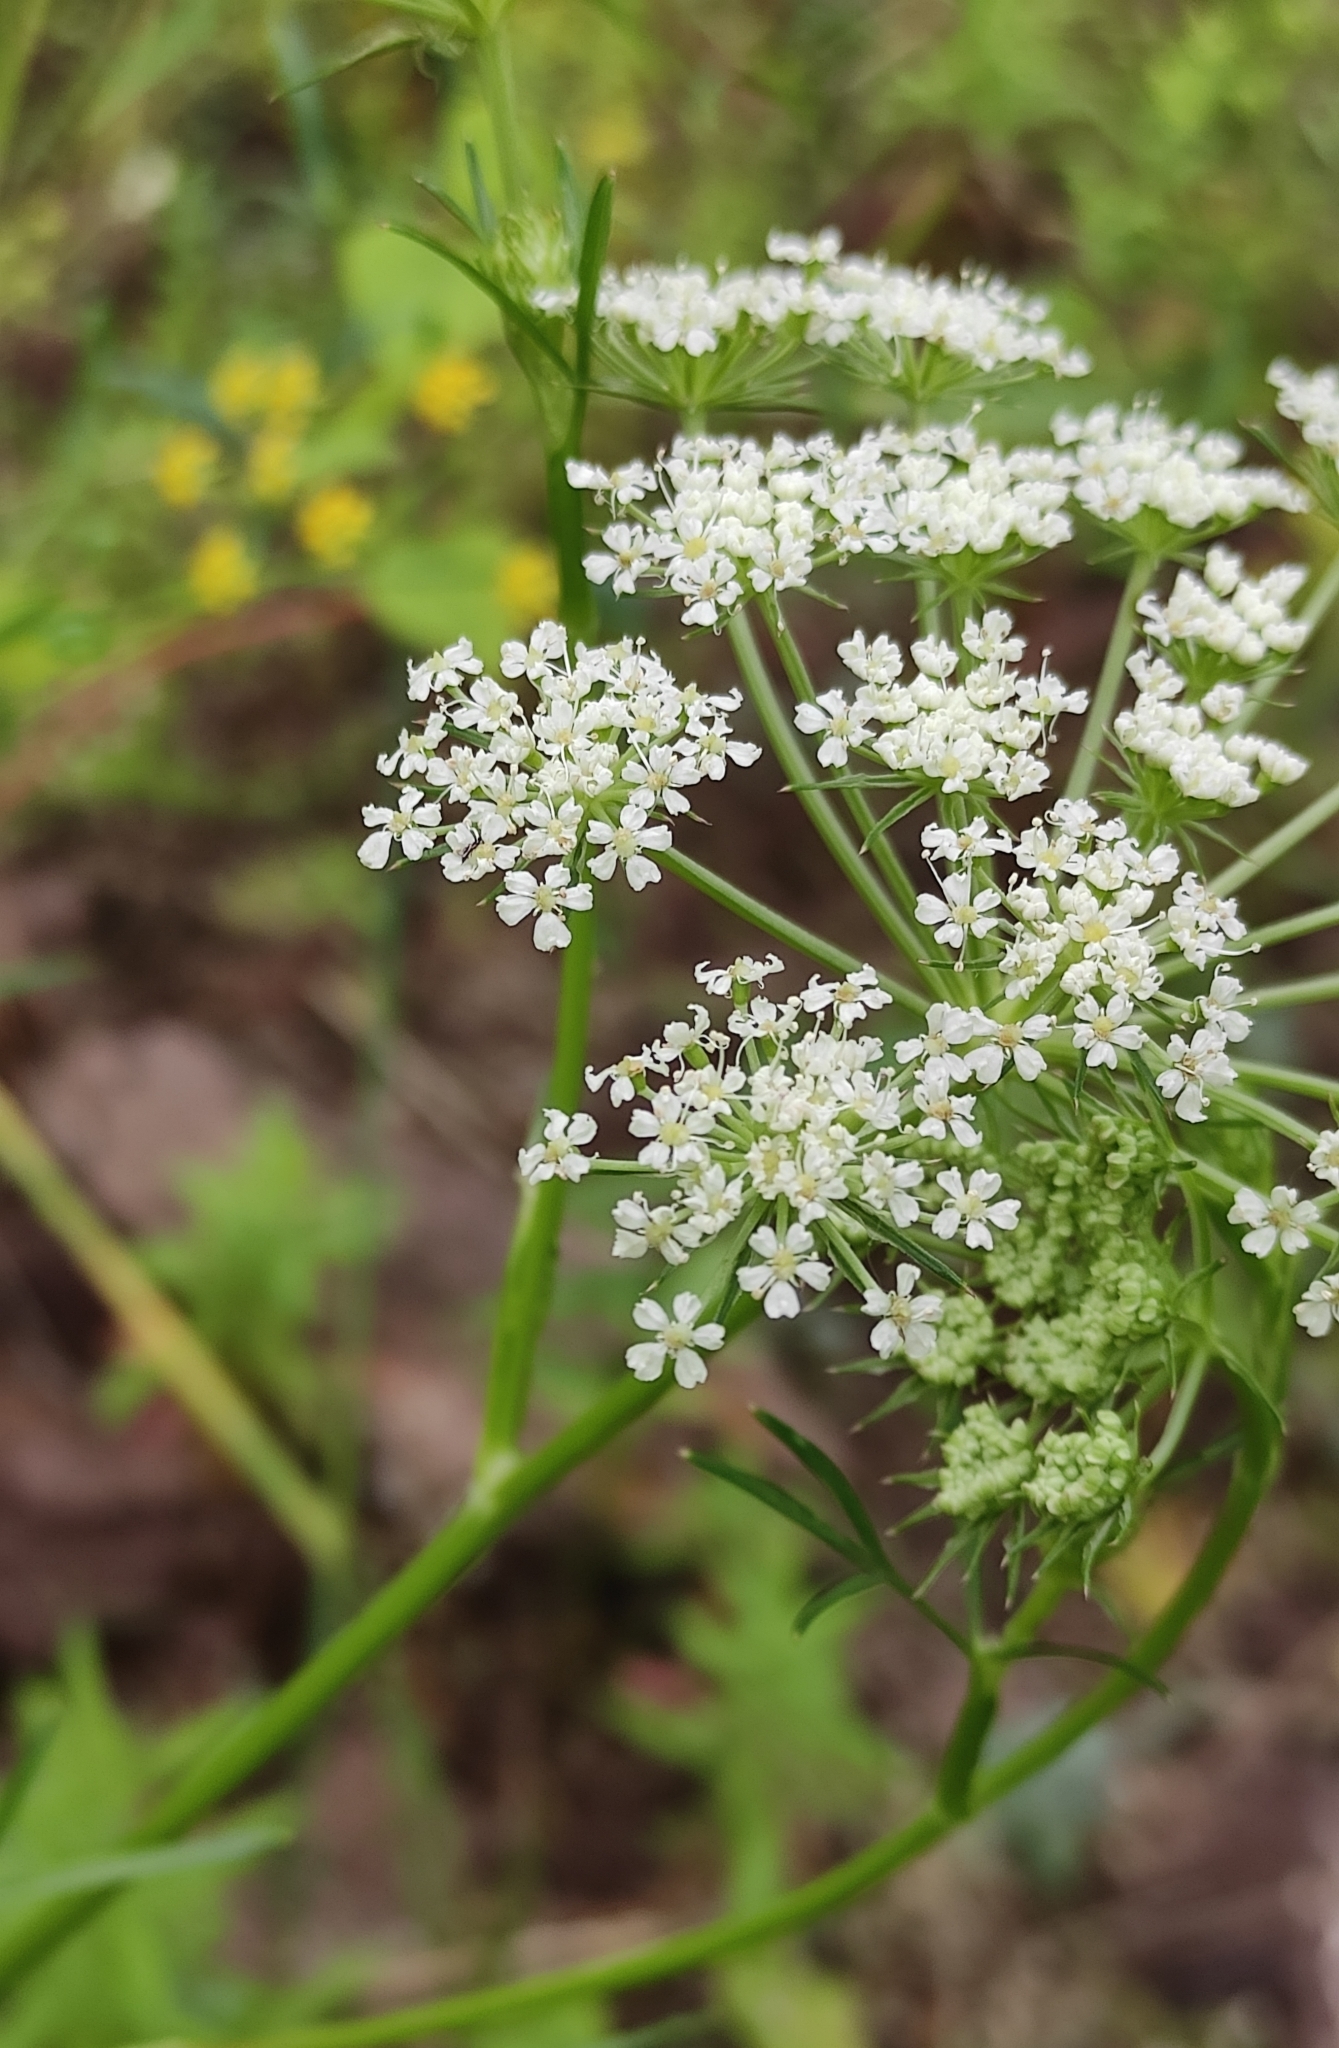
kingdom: Plantae
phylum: Tracheophyta
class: Magnoliopsida
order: Apiales
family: Apiaceae
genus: Kitagawia
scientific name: Kitagawia baicalensis
